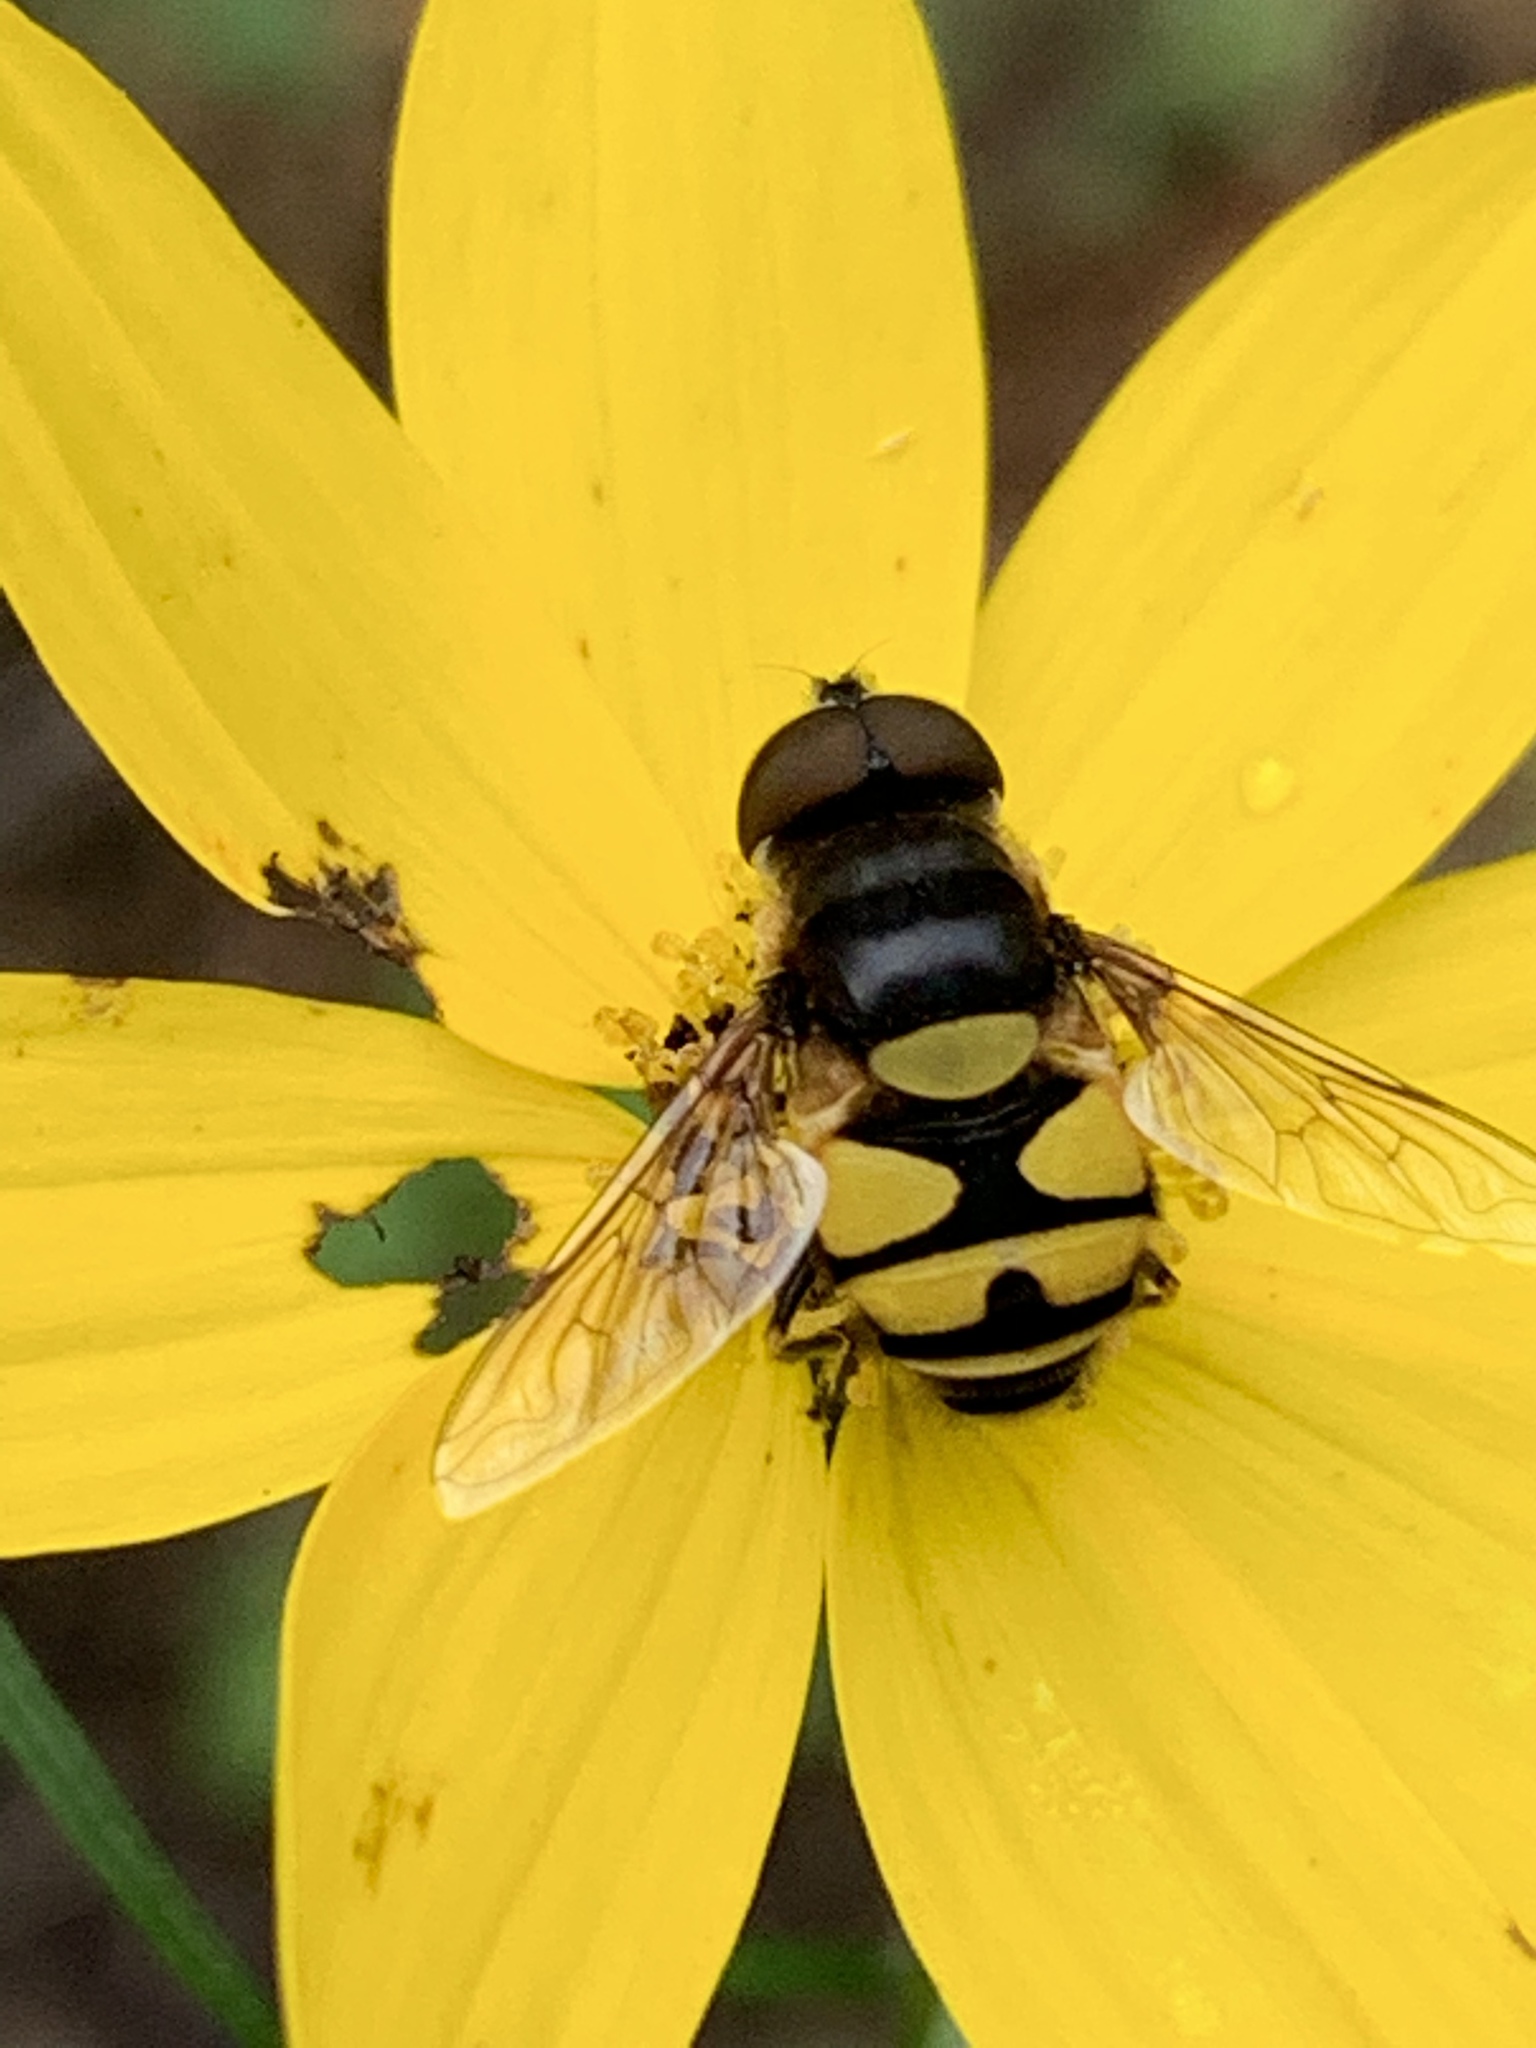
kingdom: Animalia
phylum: Arthropoda
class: Insecta
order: Diptera
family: Syrphidae
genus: Eristalis
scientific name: Eristalis transversa
